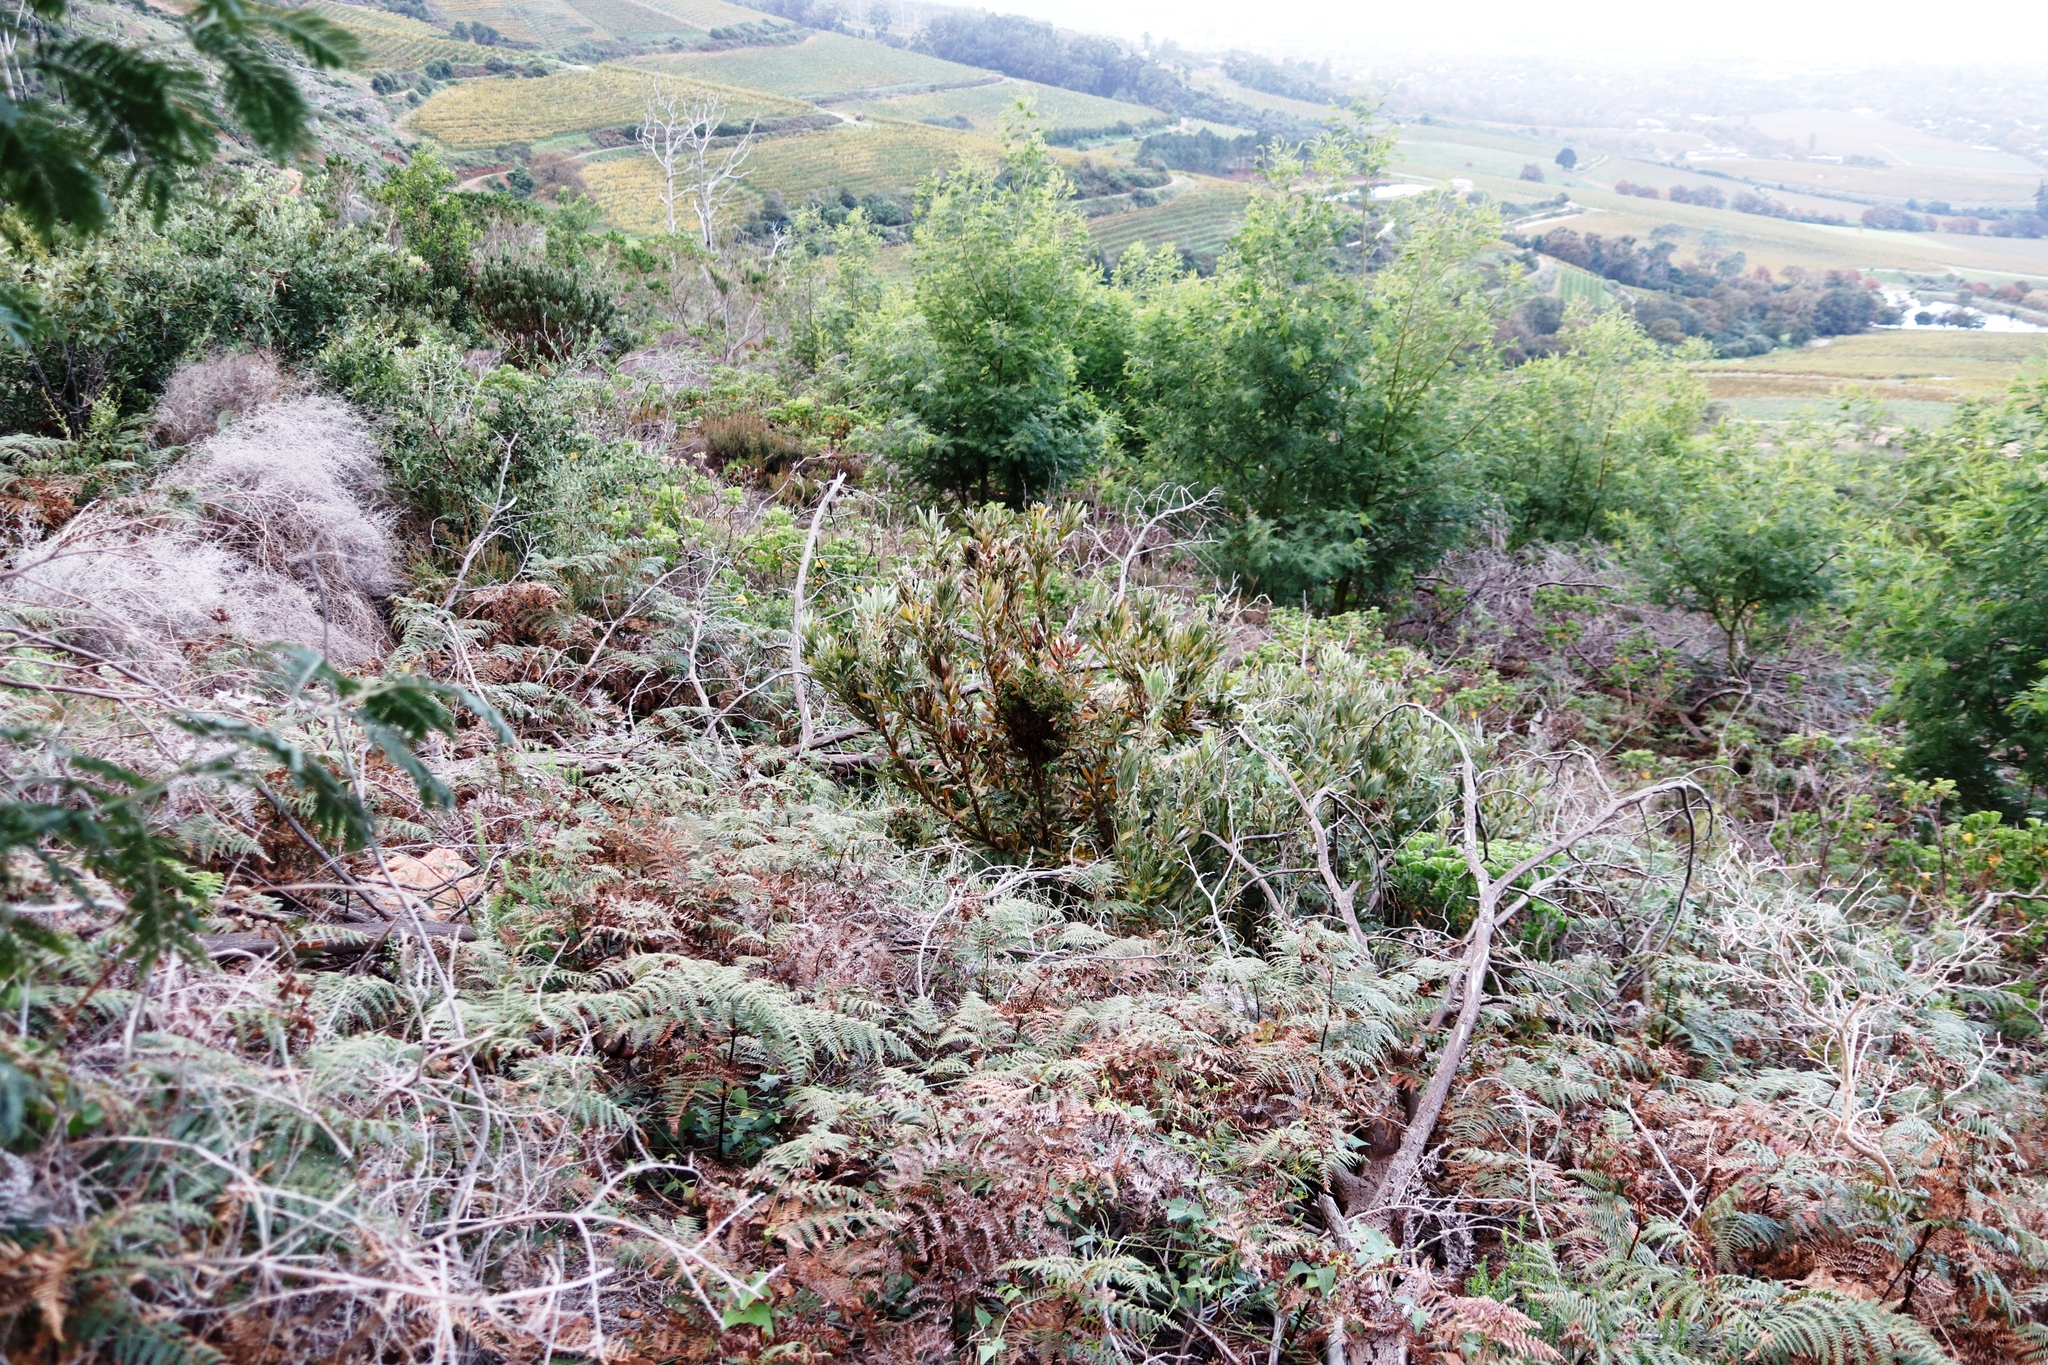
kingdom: Plantae
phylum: Tracheophyta
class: Magnoliopsida
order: Proteales
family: Proteaceae
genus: Protea
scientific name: Protea lepidocarpodendron
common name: Black-bearded protea
